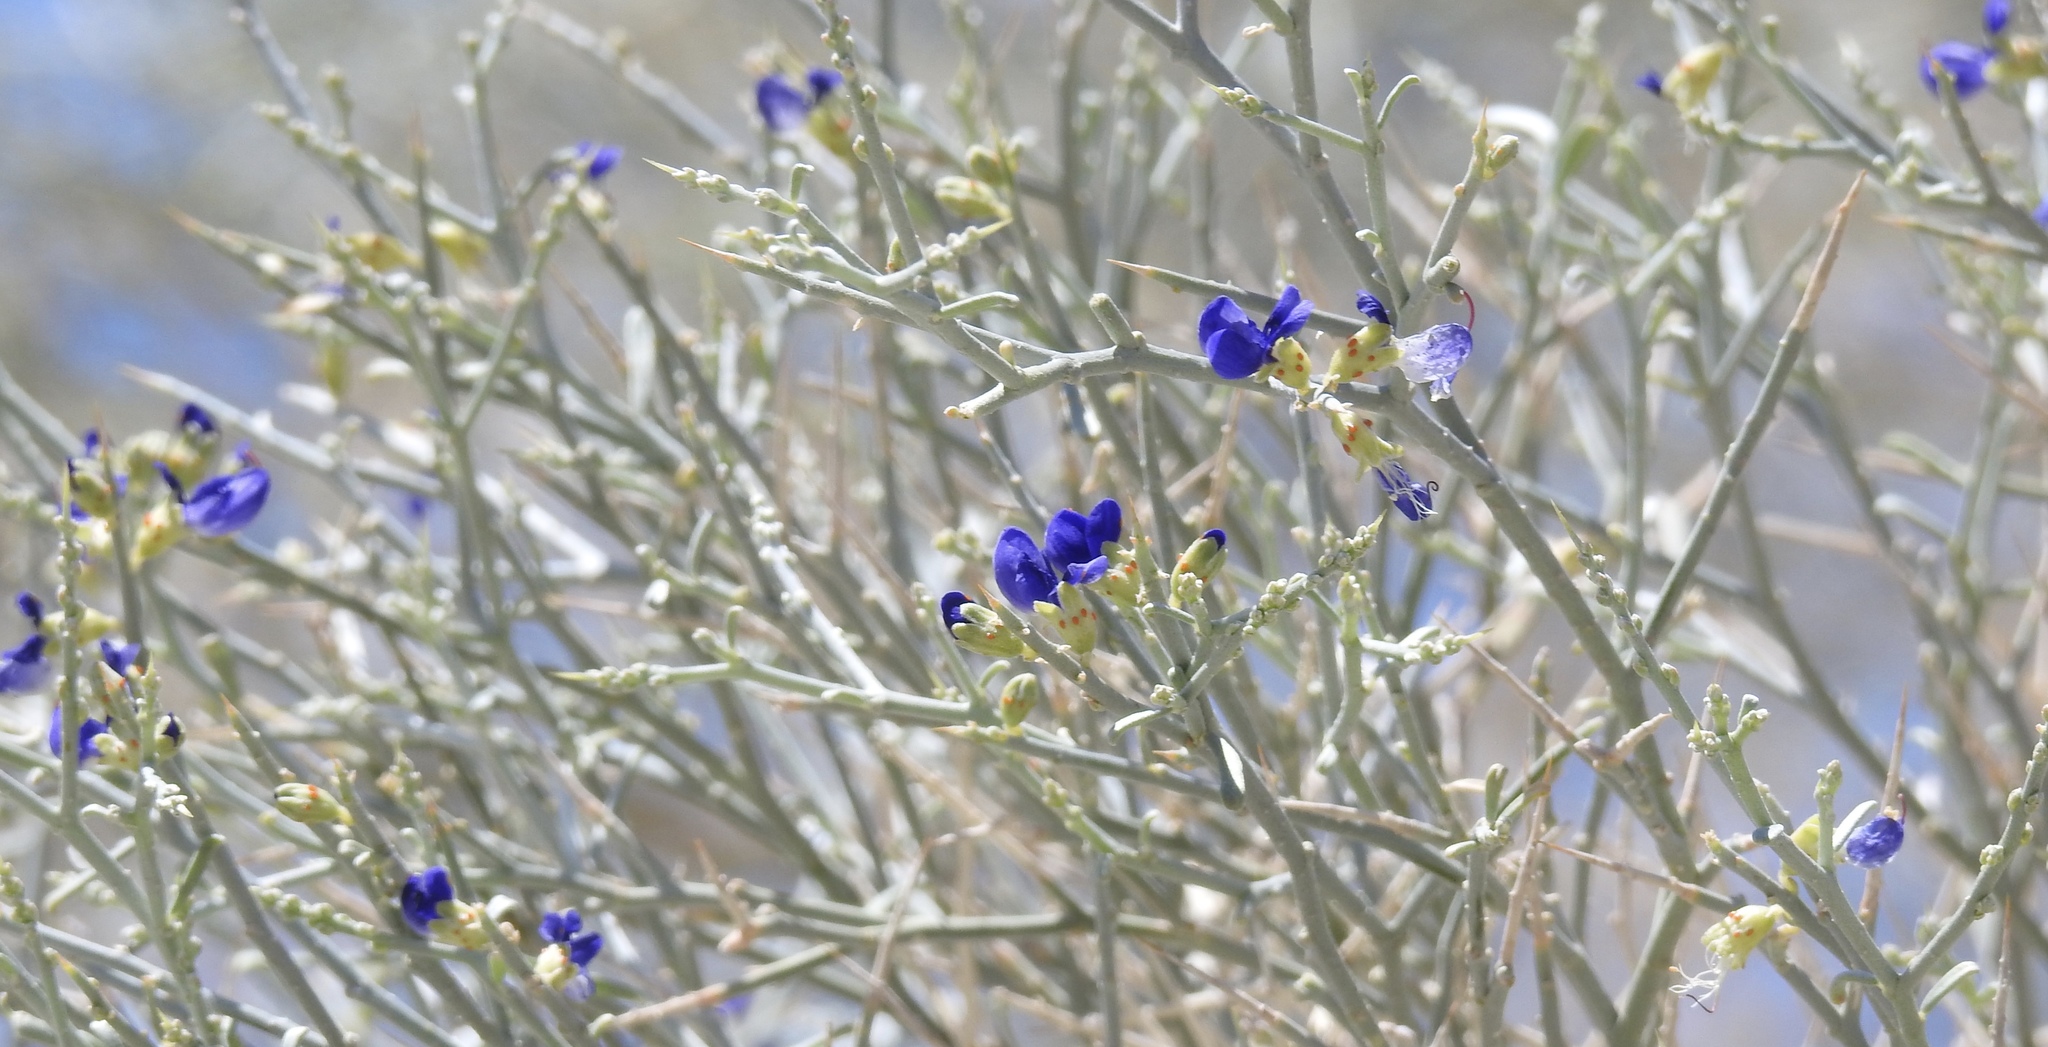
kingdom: Plantae
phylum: Tracheophyta
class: Magnoliopsida
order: Fabales
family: Fabaceae
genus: Psorothamnus
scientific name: Psorothamnus spinosus
